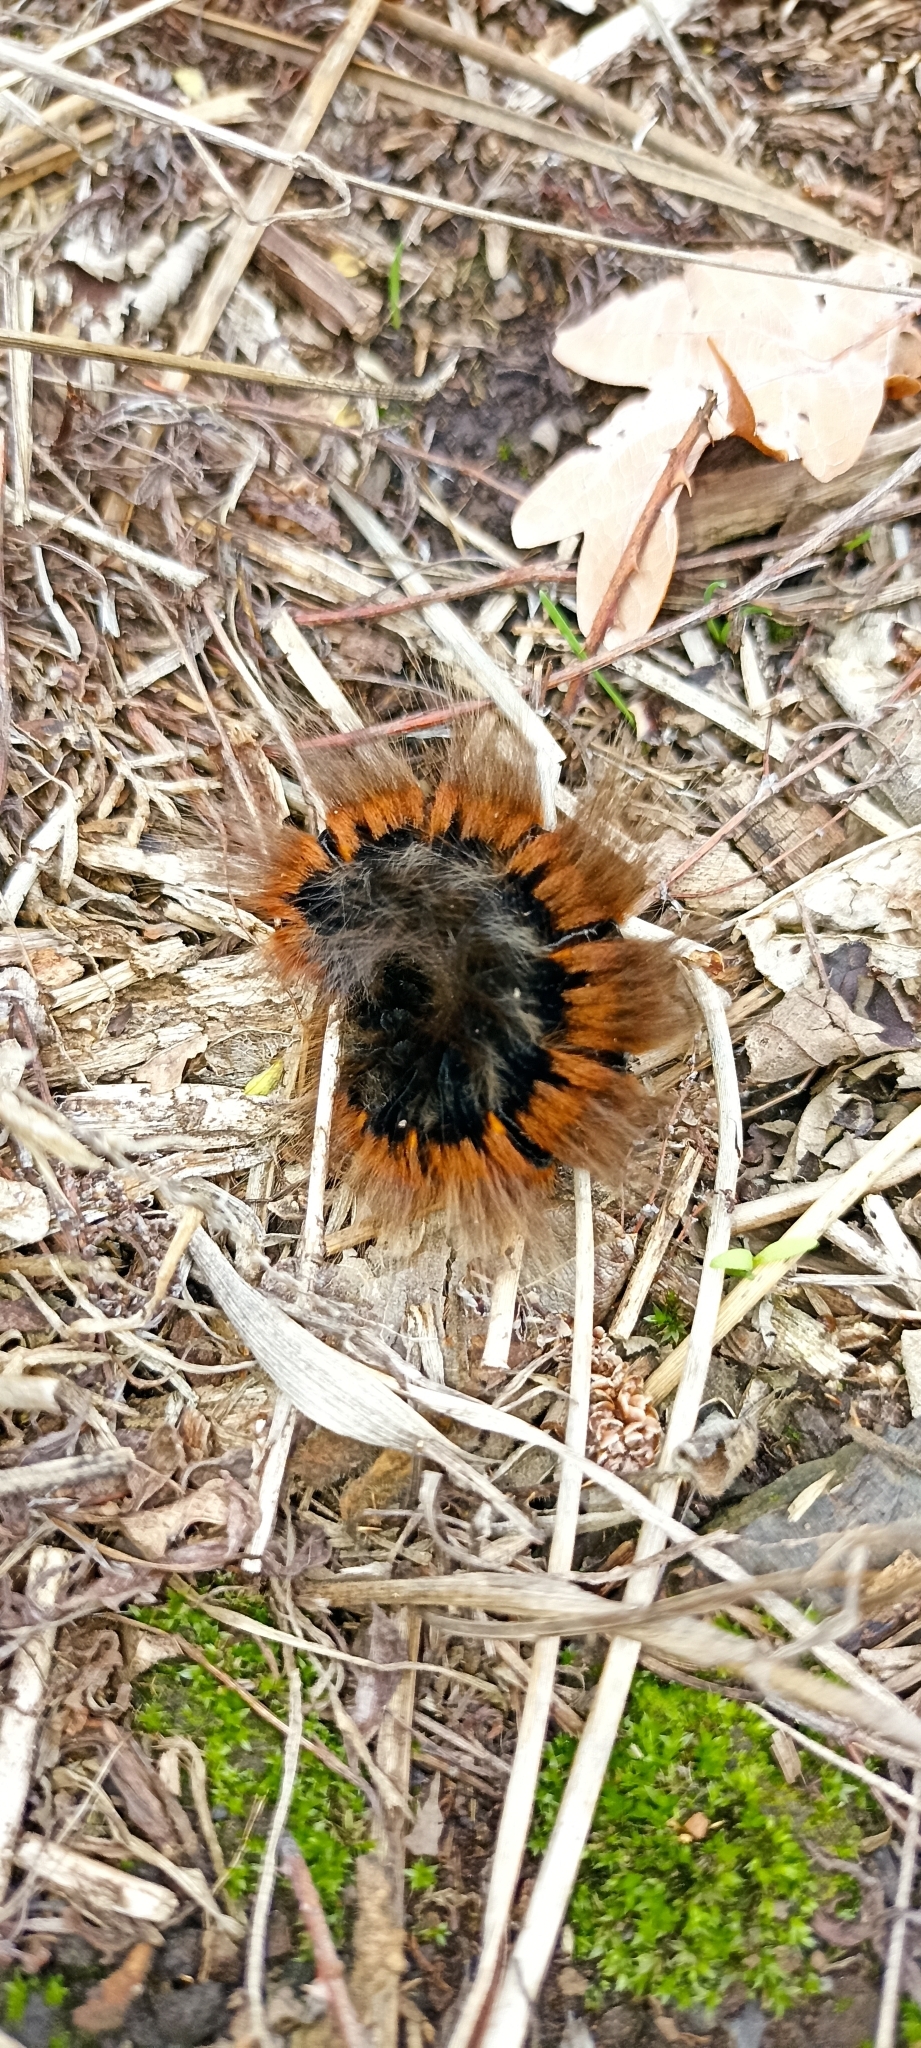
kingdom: Animalia
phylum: Arthropoda
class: Insecta
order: Lepidoptera
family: Lasiocampidae
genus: Macrothylacia
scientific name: Macrothylacia rubi
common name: Fox moth
